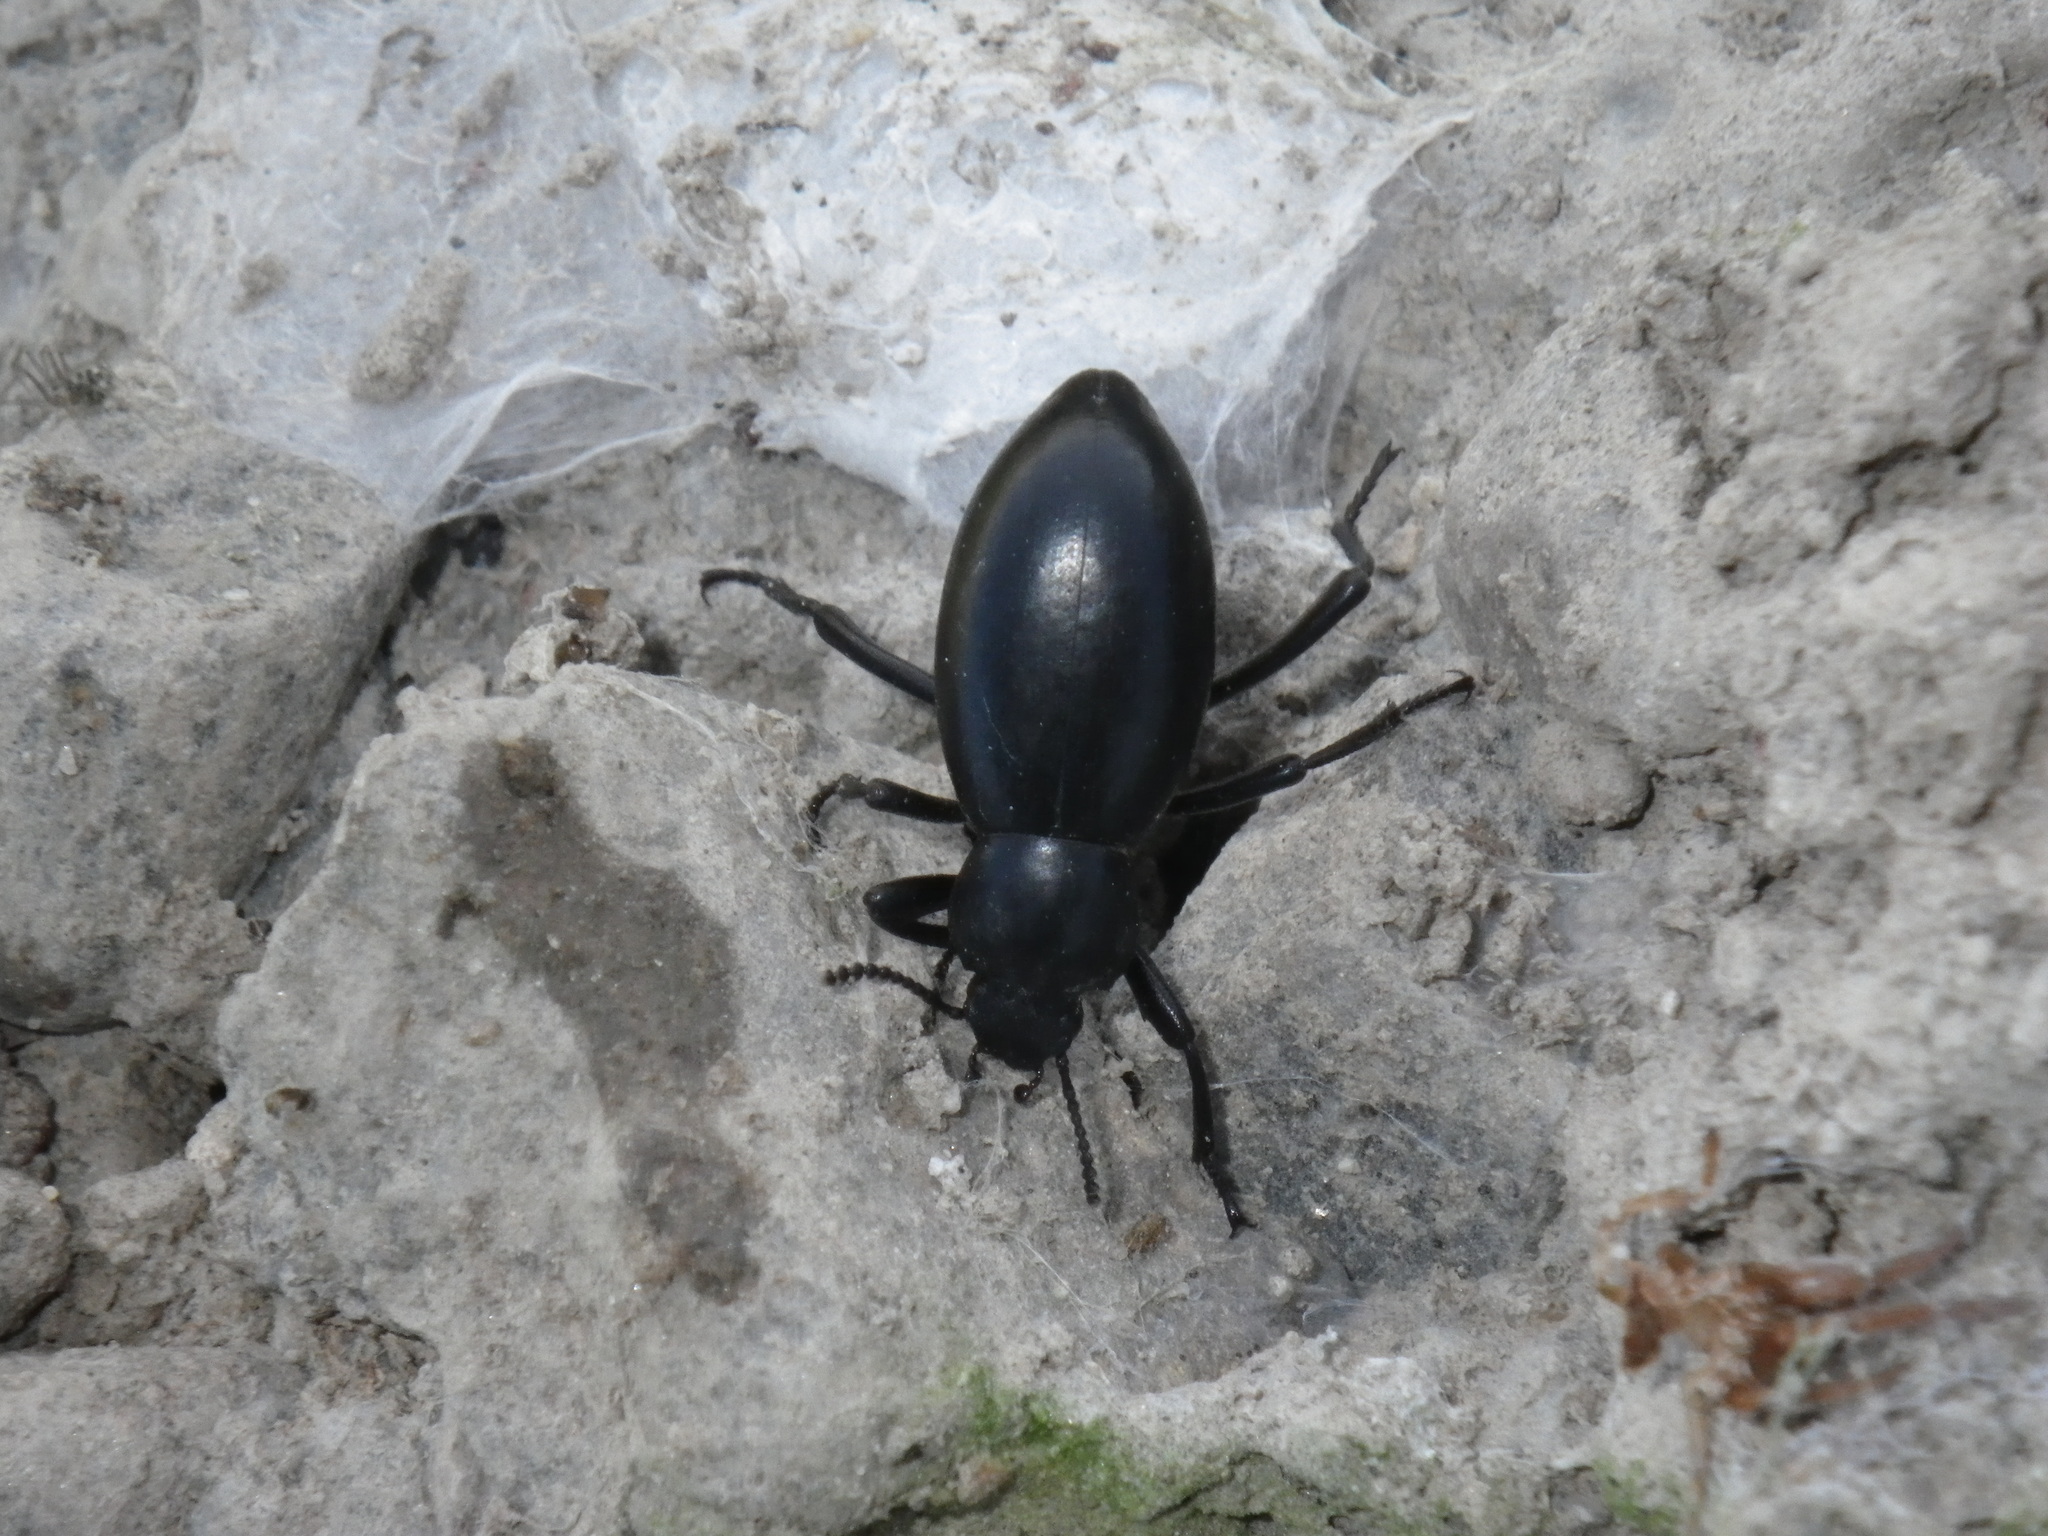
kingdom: Animalia
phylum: Arthropoda
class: Insecta
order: Coleoptera
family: Tenebrionidae
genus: Eleodes
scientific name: Eleodes dentipes
